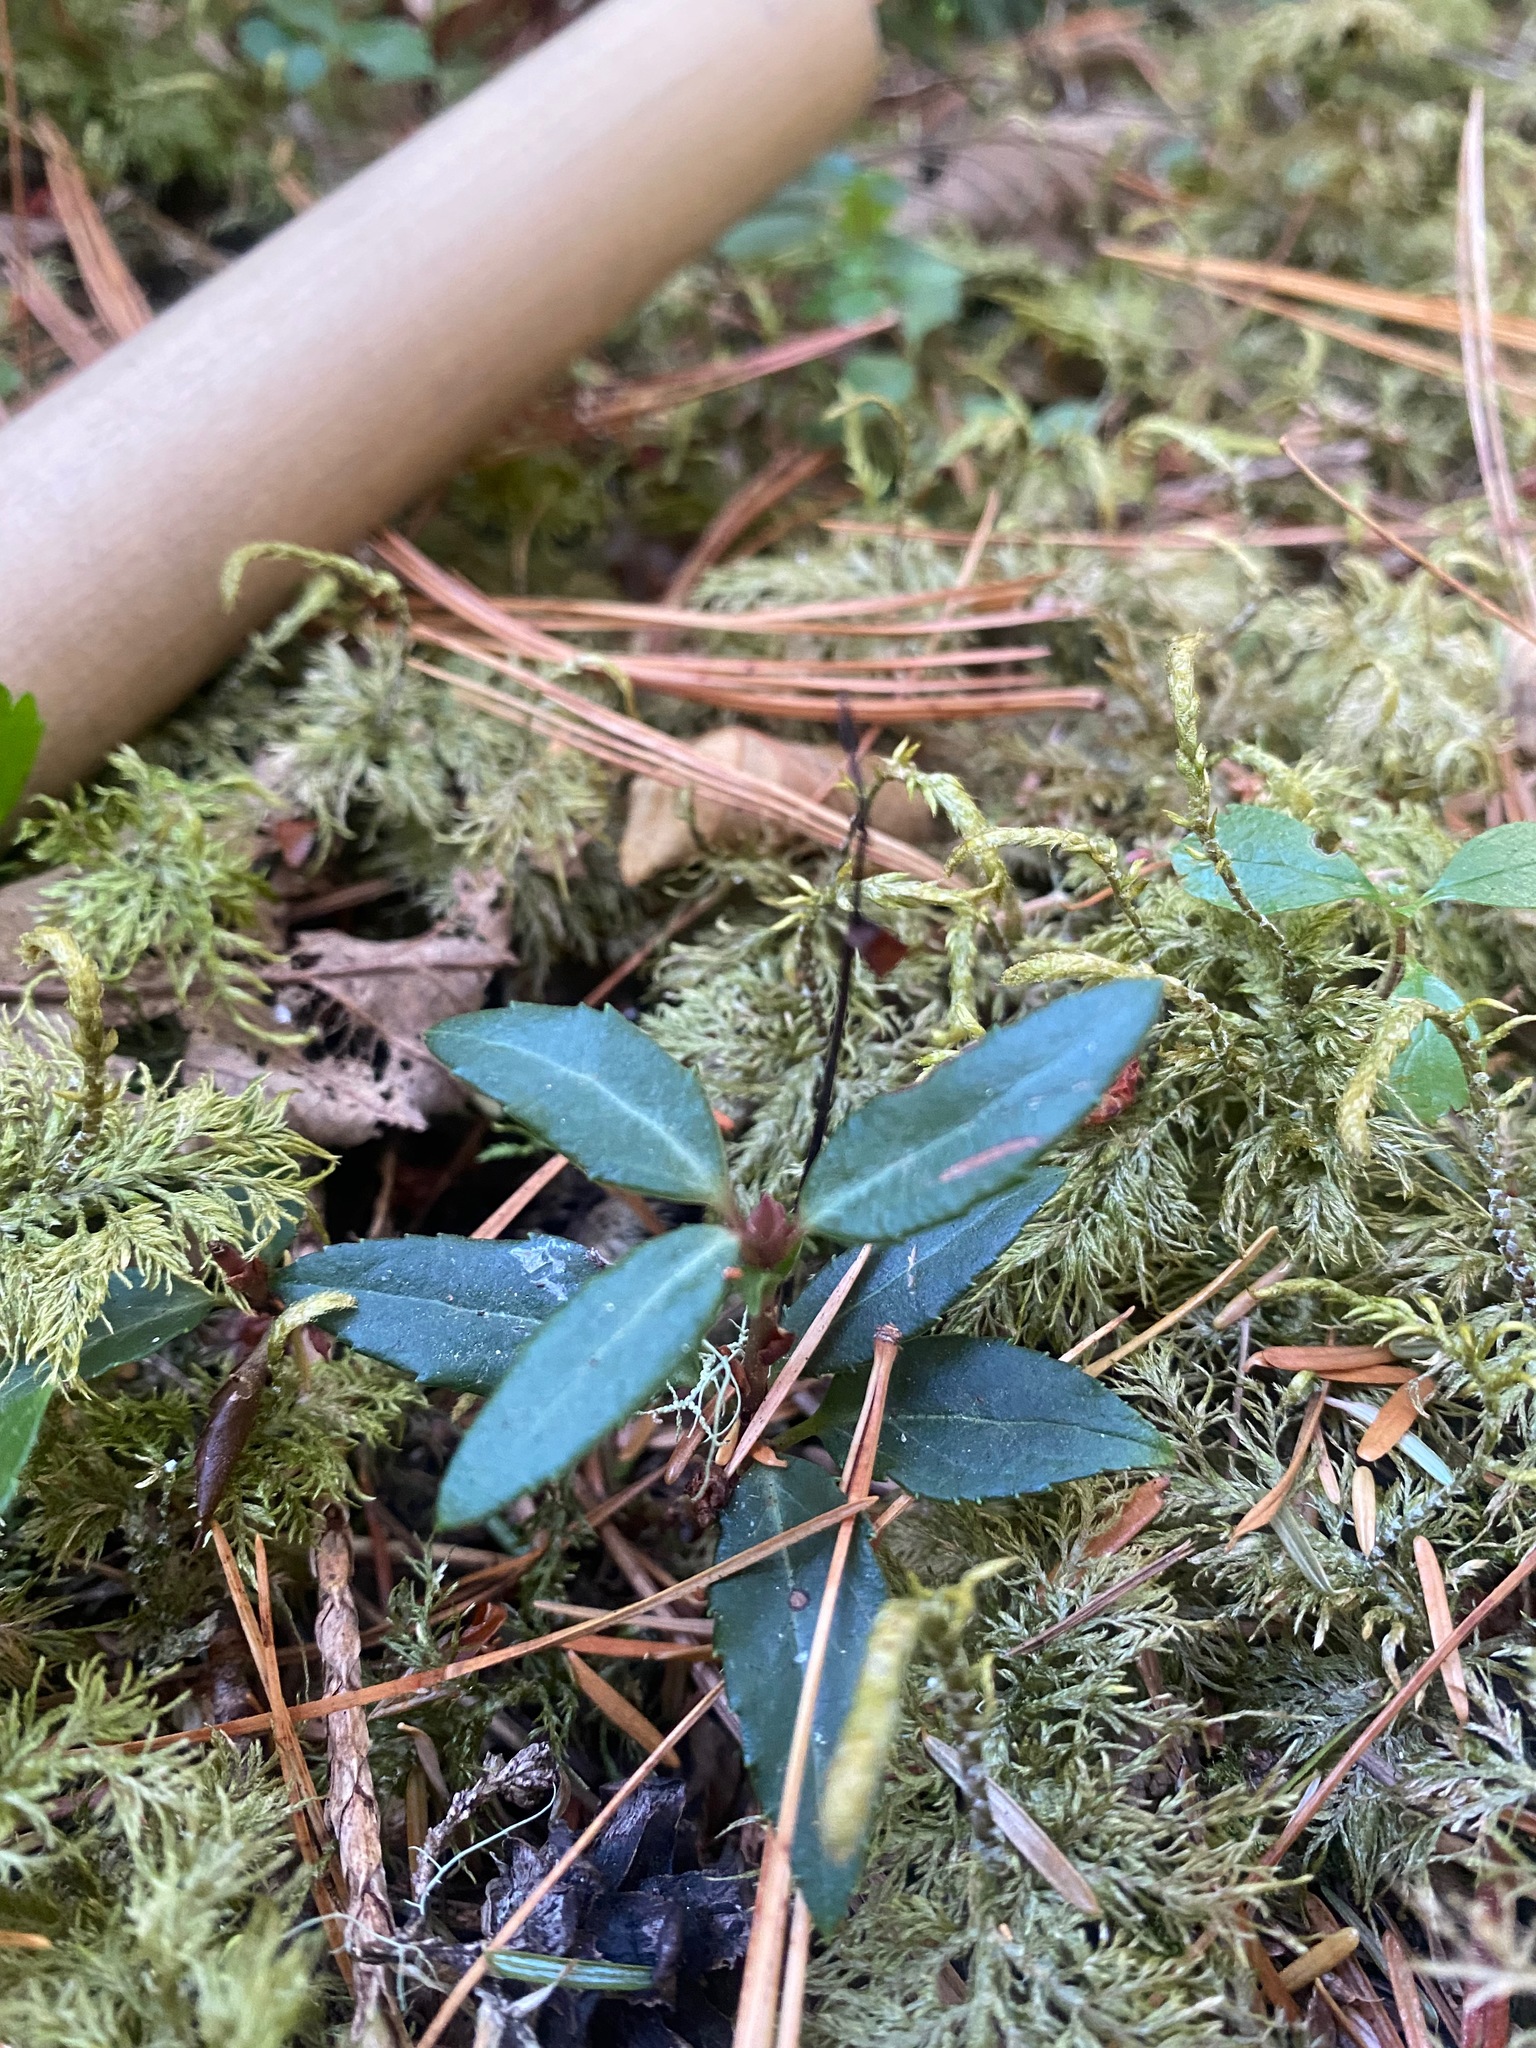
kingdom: Plantae
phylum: Tracheophyta
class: Magnoliopsida
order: Ericales
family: Ericaceae
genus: Chimaphila
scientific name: Chimaphila menziesii
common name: Menzies' pipsissewa
